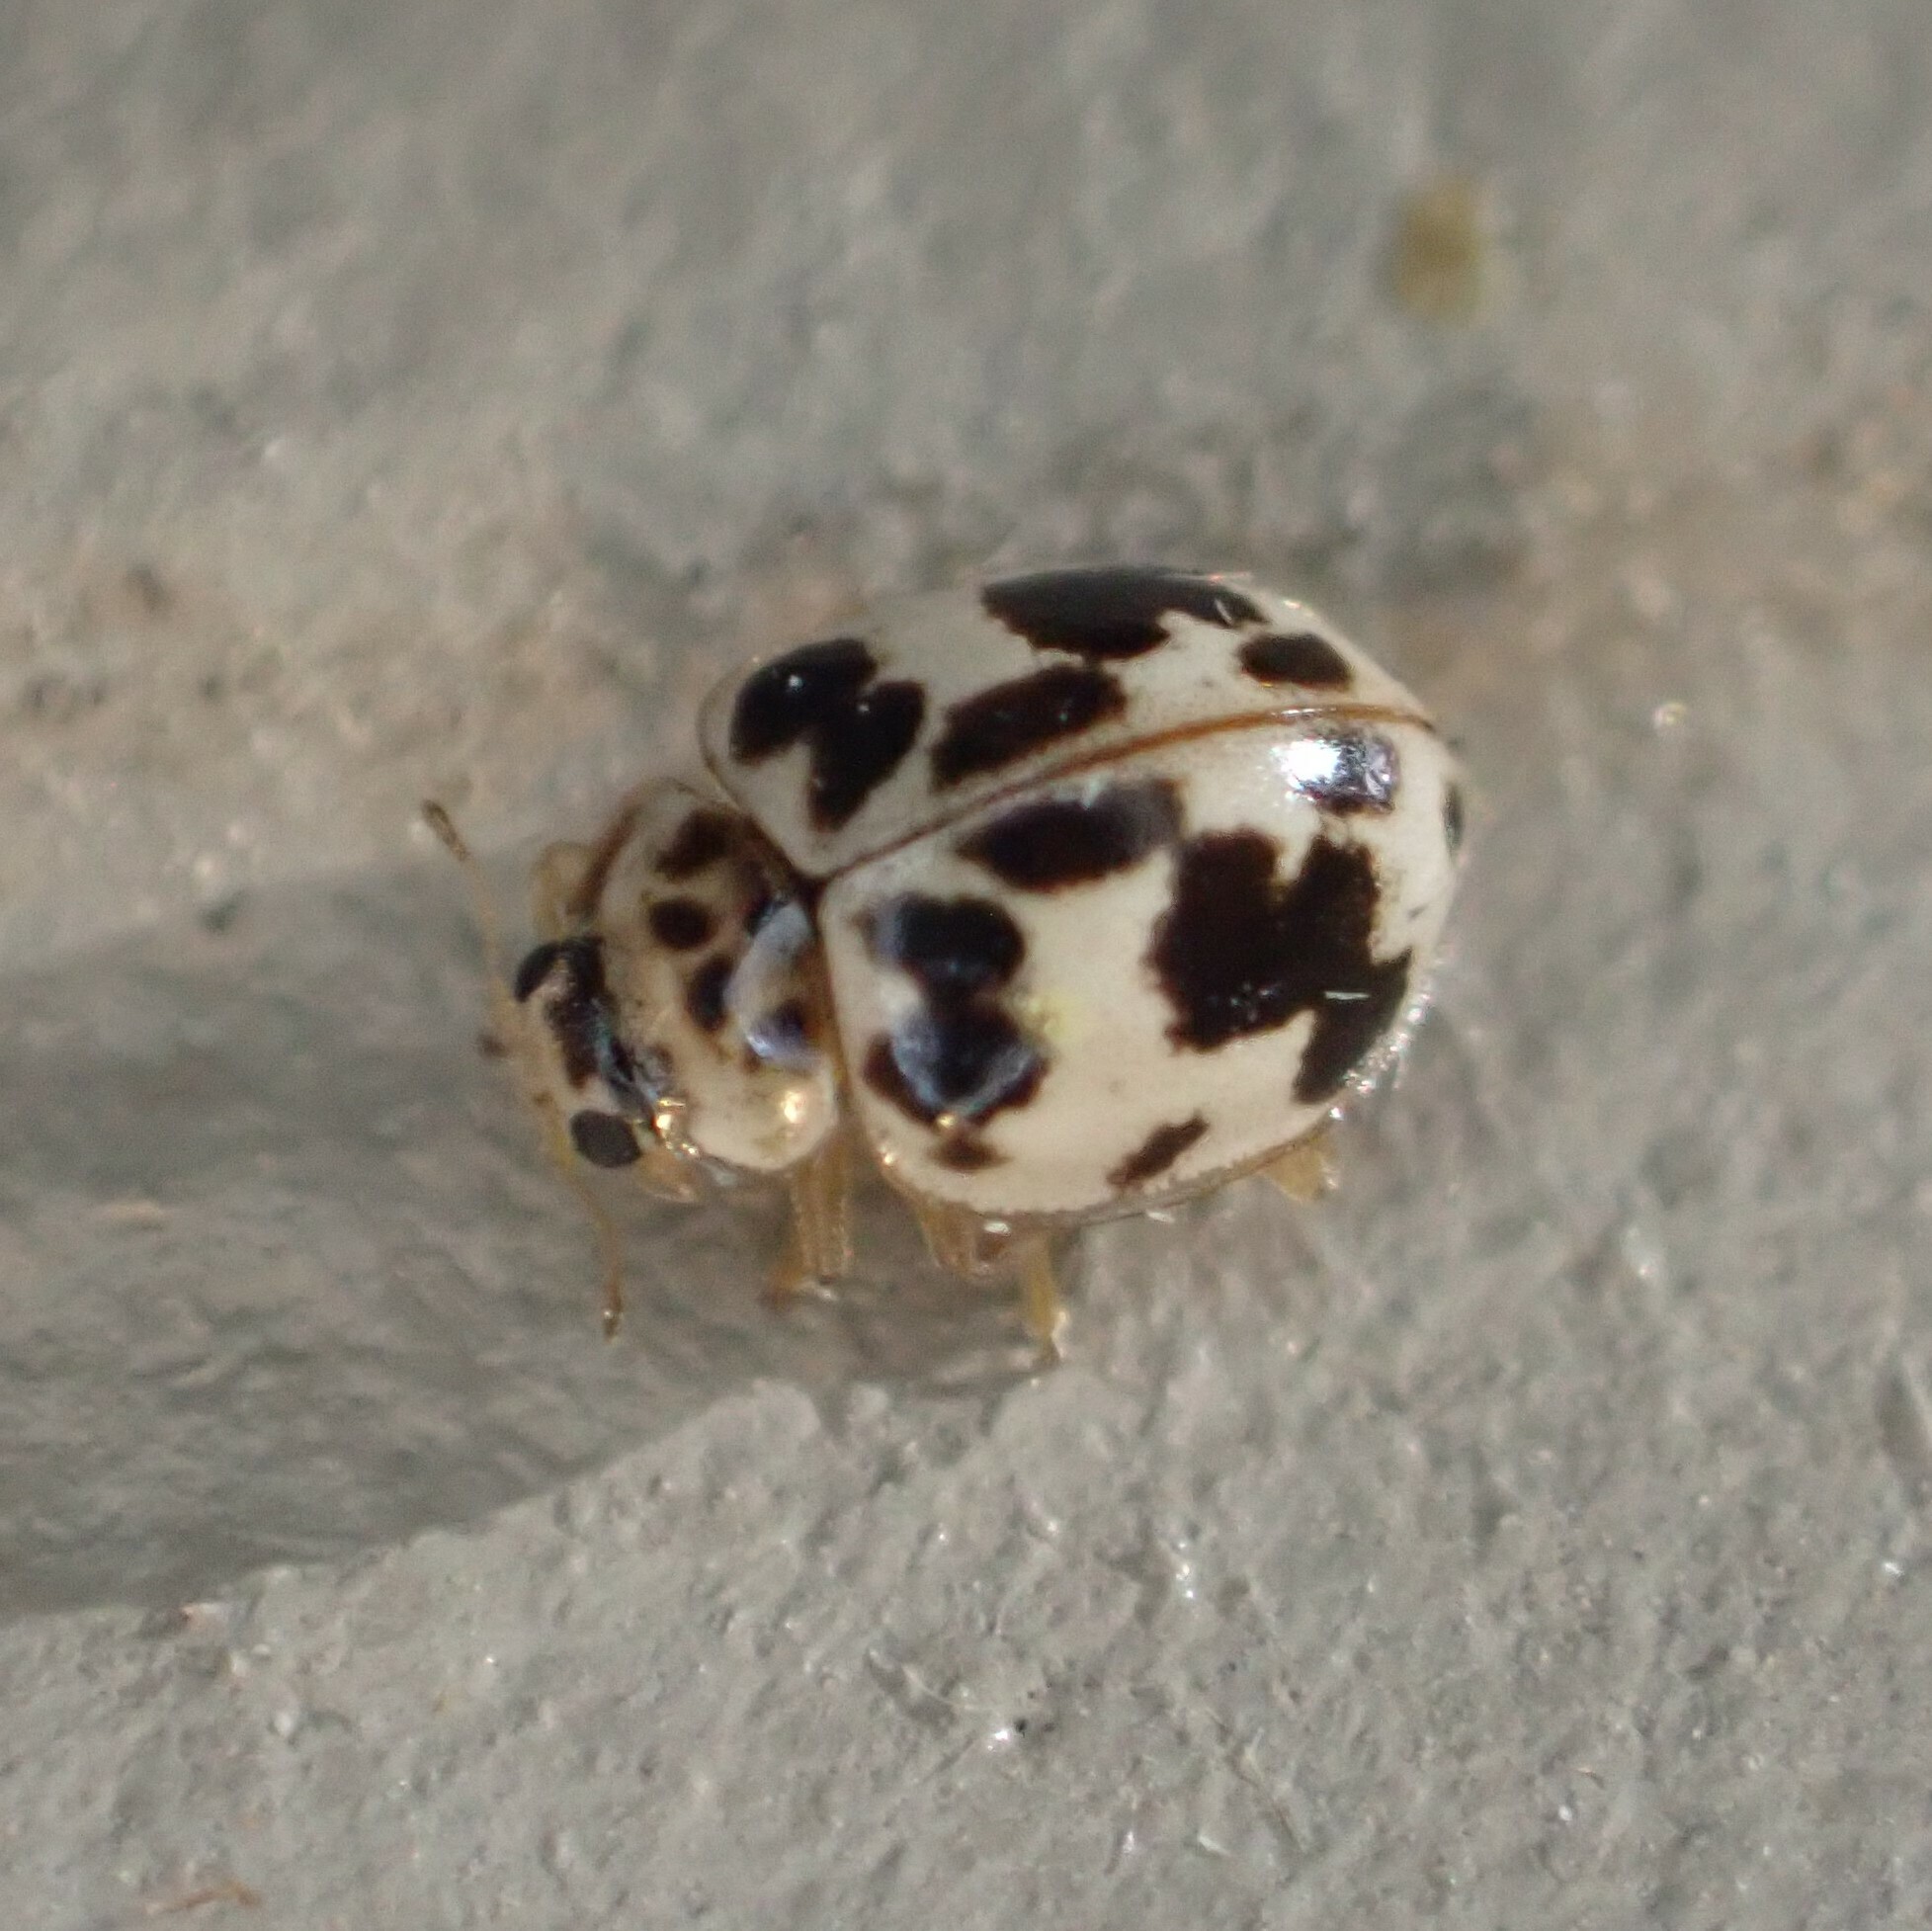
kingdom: Animalia
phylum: Arthropoda
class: Insecta
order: Coleoptera
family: Coccinellidae
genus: Psyllobora
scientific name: Psyllobora borealis
